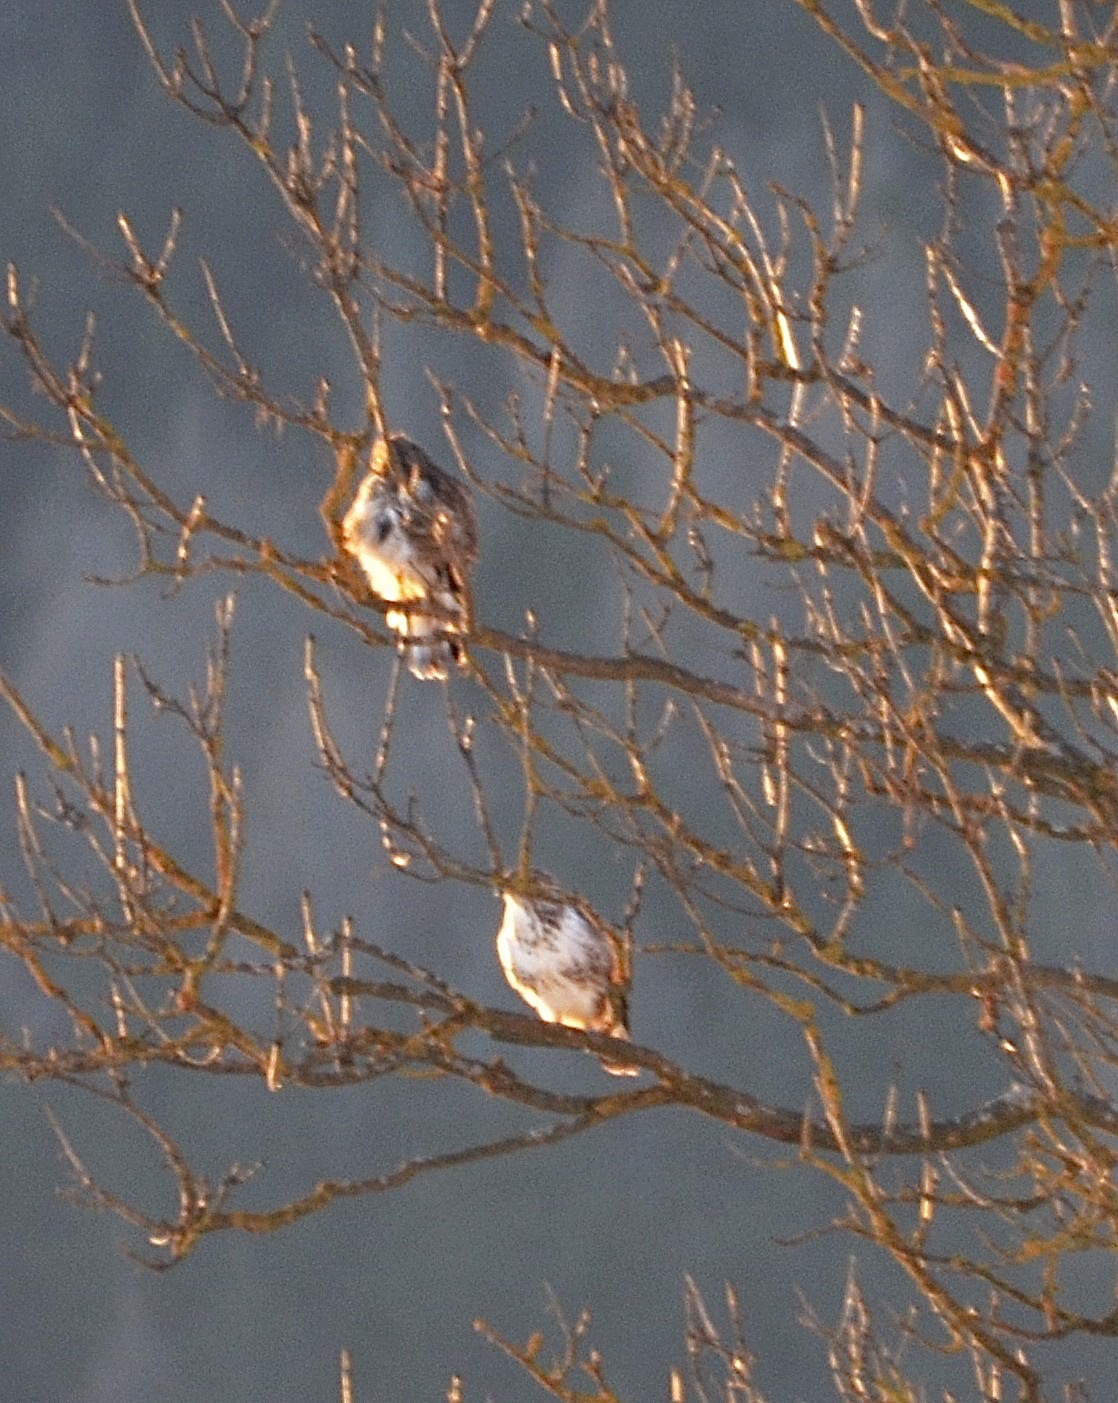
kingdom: Animalia
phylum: Chordata
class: Aves
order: Accipitriformes
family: Accipitridae
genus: Buteo
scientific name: Buteo buteo
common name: Common buzzard
